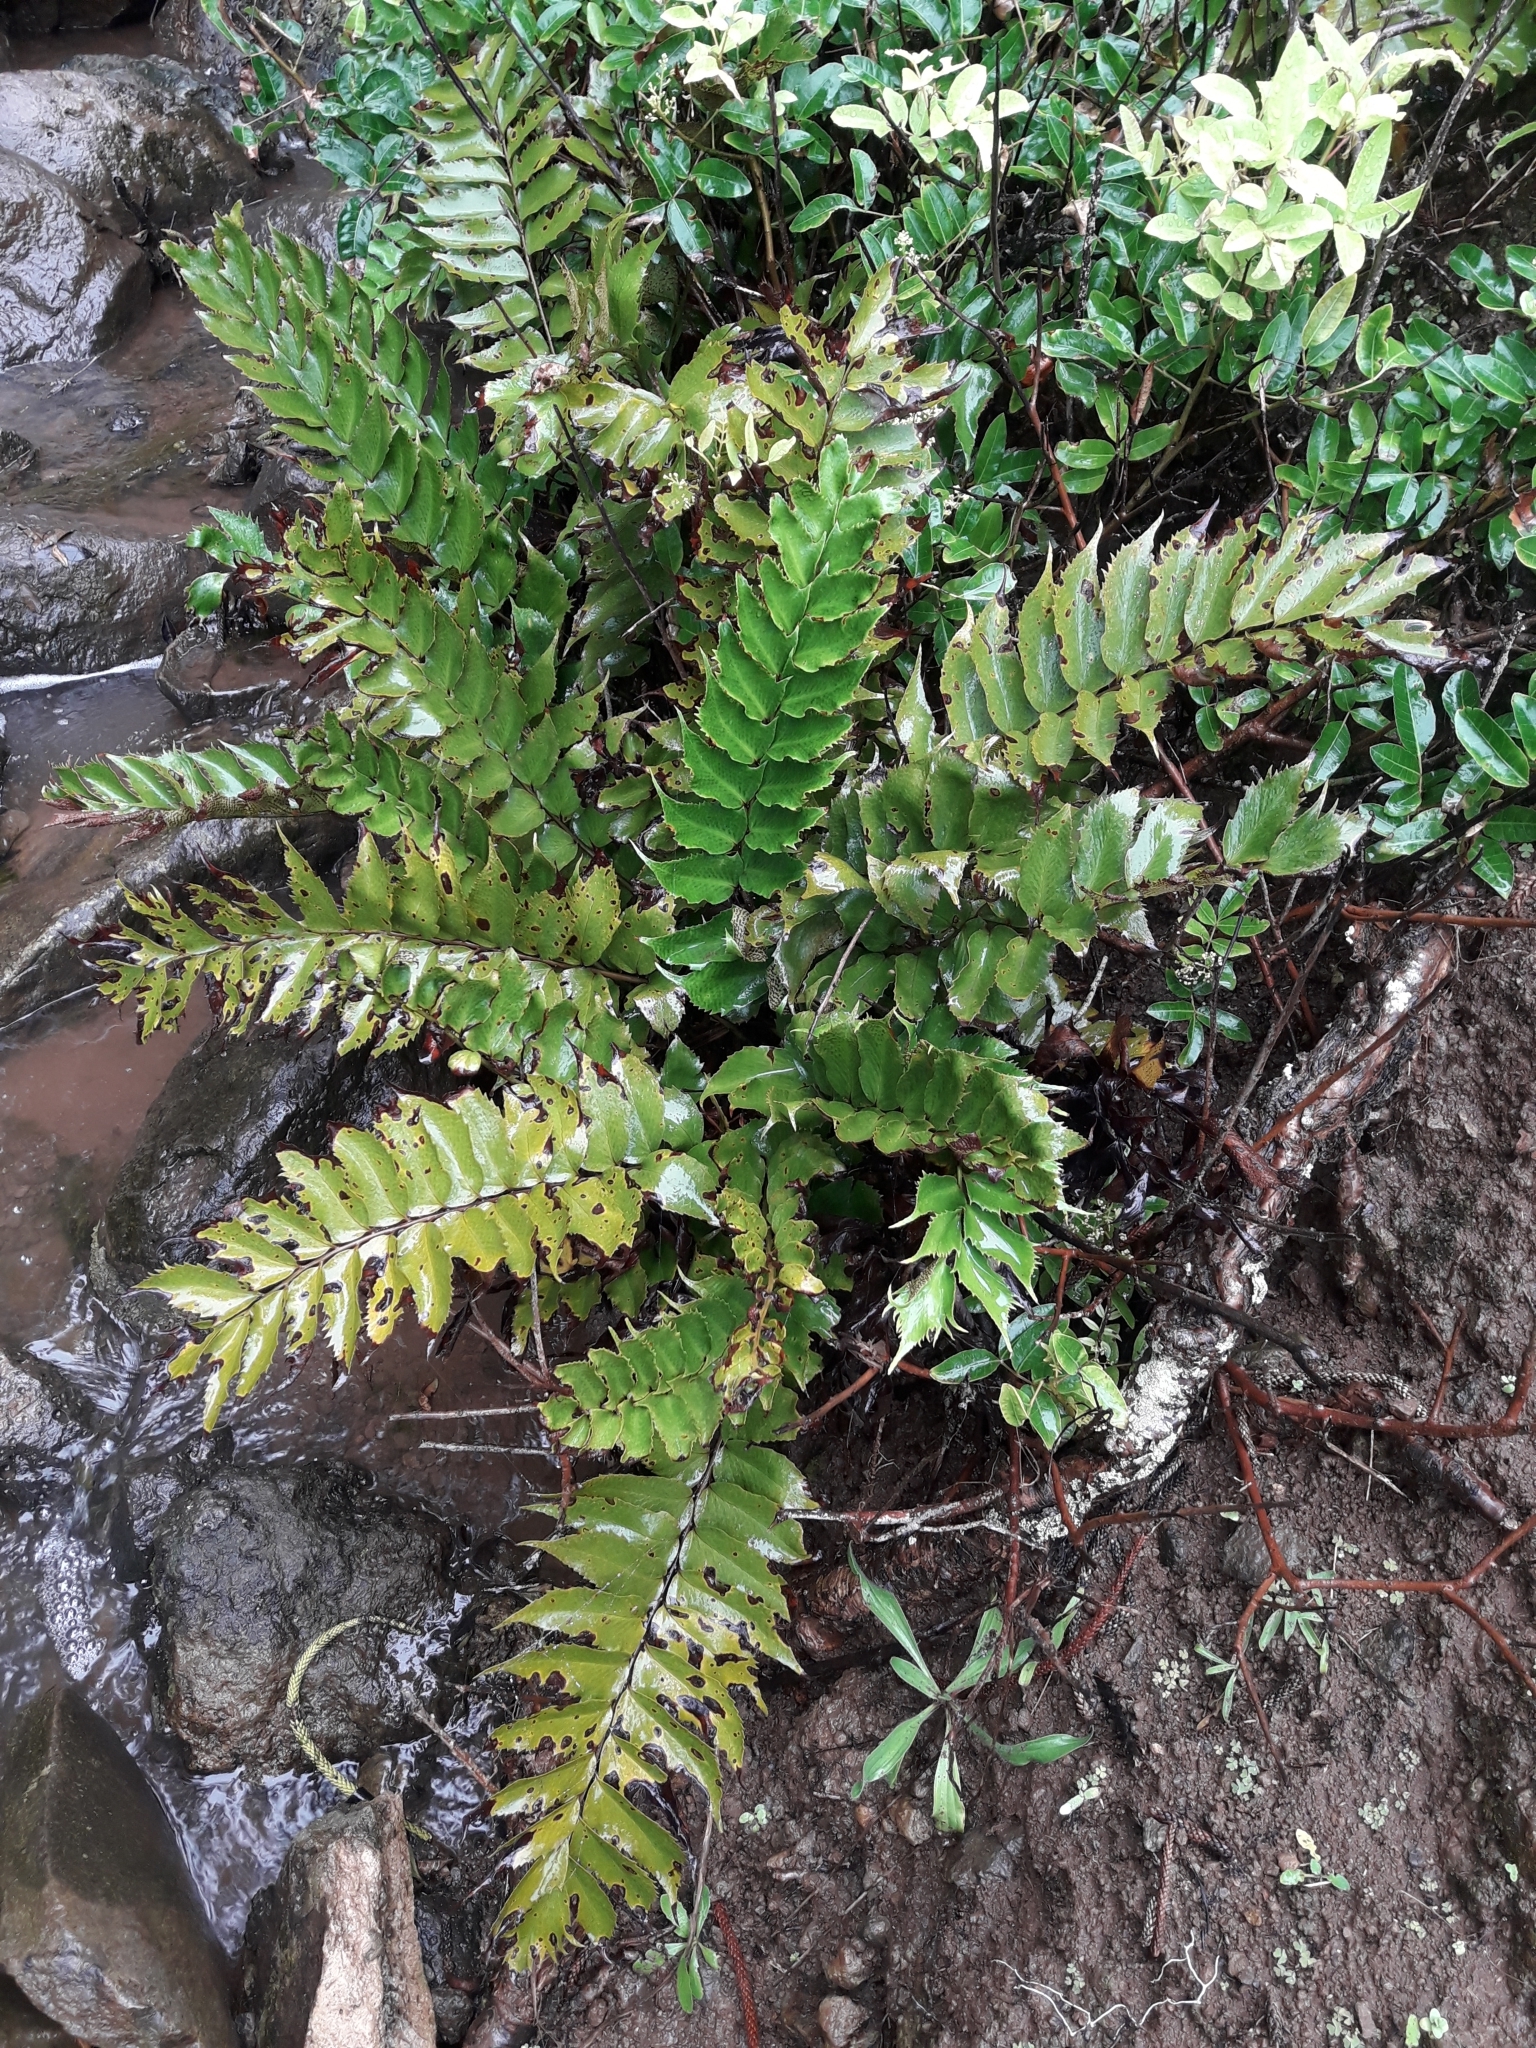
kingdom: Plantae
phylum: Tracheophyta
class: Polypodiopsida
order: Polypodiales
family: Dryopteridaceae
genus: Cyrtomium
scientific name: Cyrtomium falcatum
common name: House holly-fern
